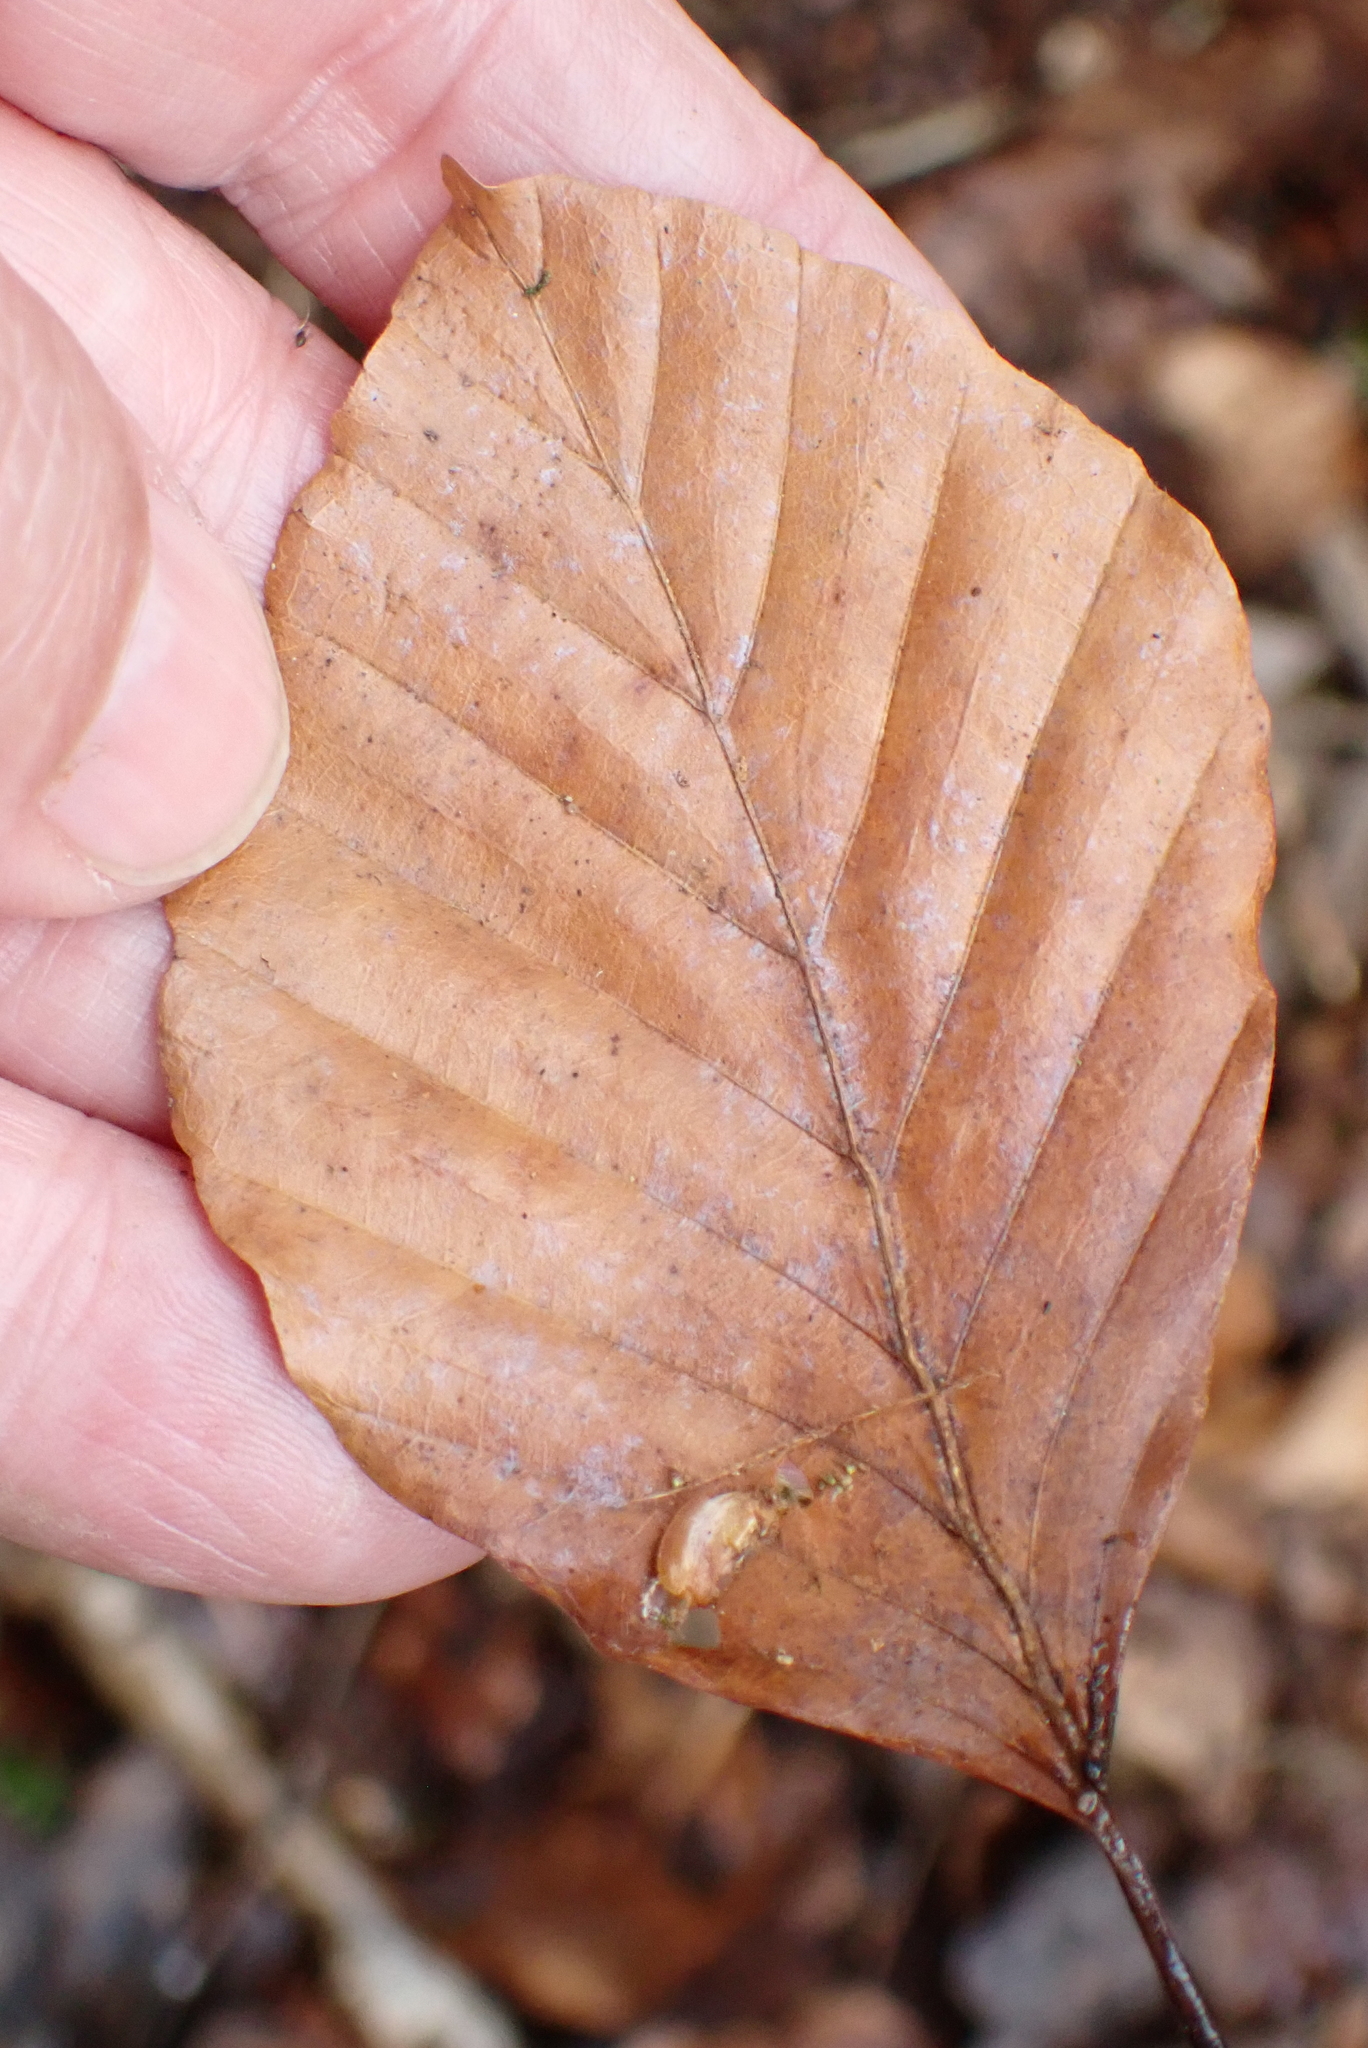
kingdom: Plantae
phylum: Tracheophyta
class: Magnoliopsida
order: Fagales
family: Fagaceae
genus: Fagus
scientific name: Fagus sylvatica
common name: Beech
